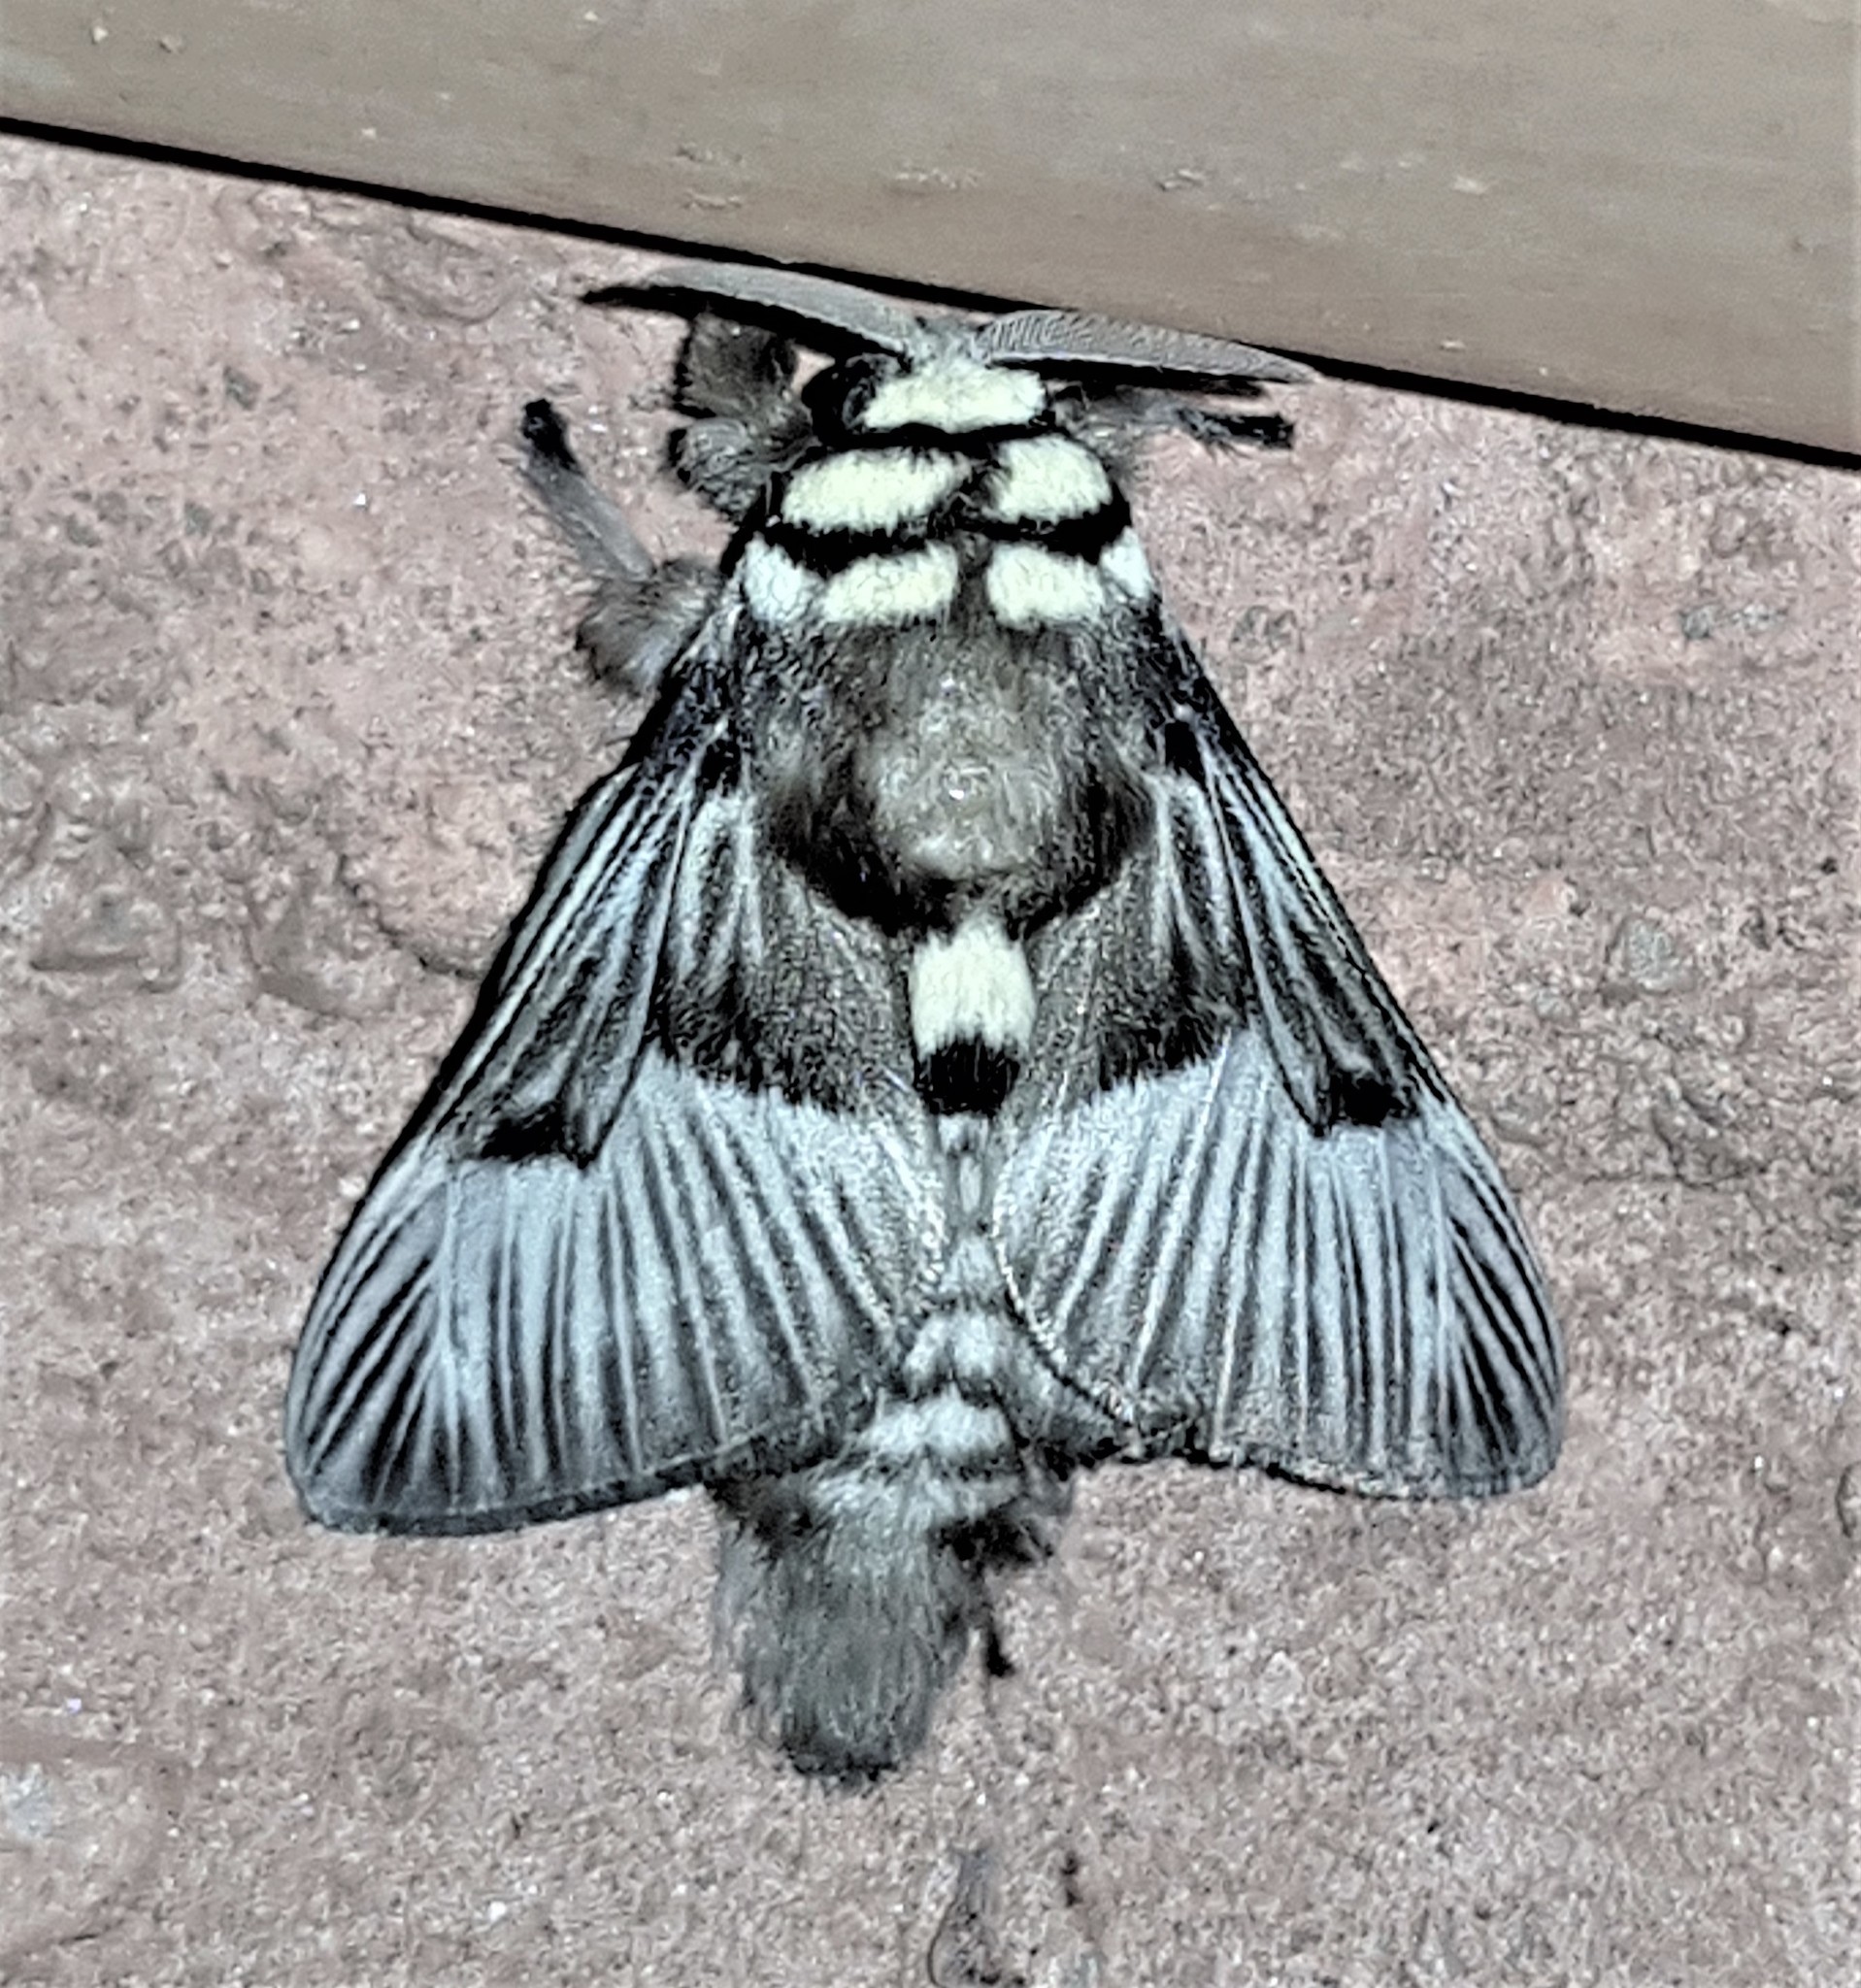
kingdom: Animalia
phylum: Arthropoda
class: Insecta
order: Lepidoptera
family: Megalopygidae
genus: Megalopyge
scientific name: Megalopyge tharops
